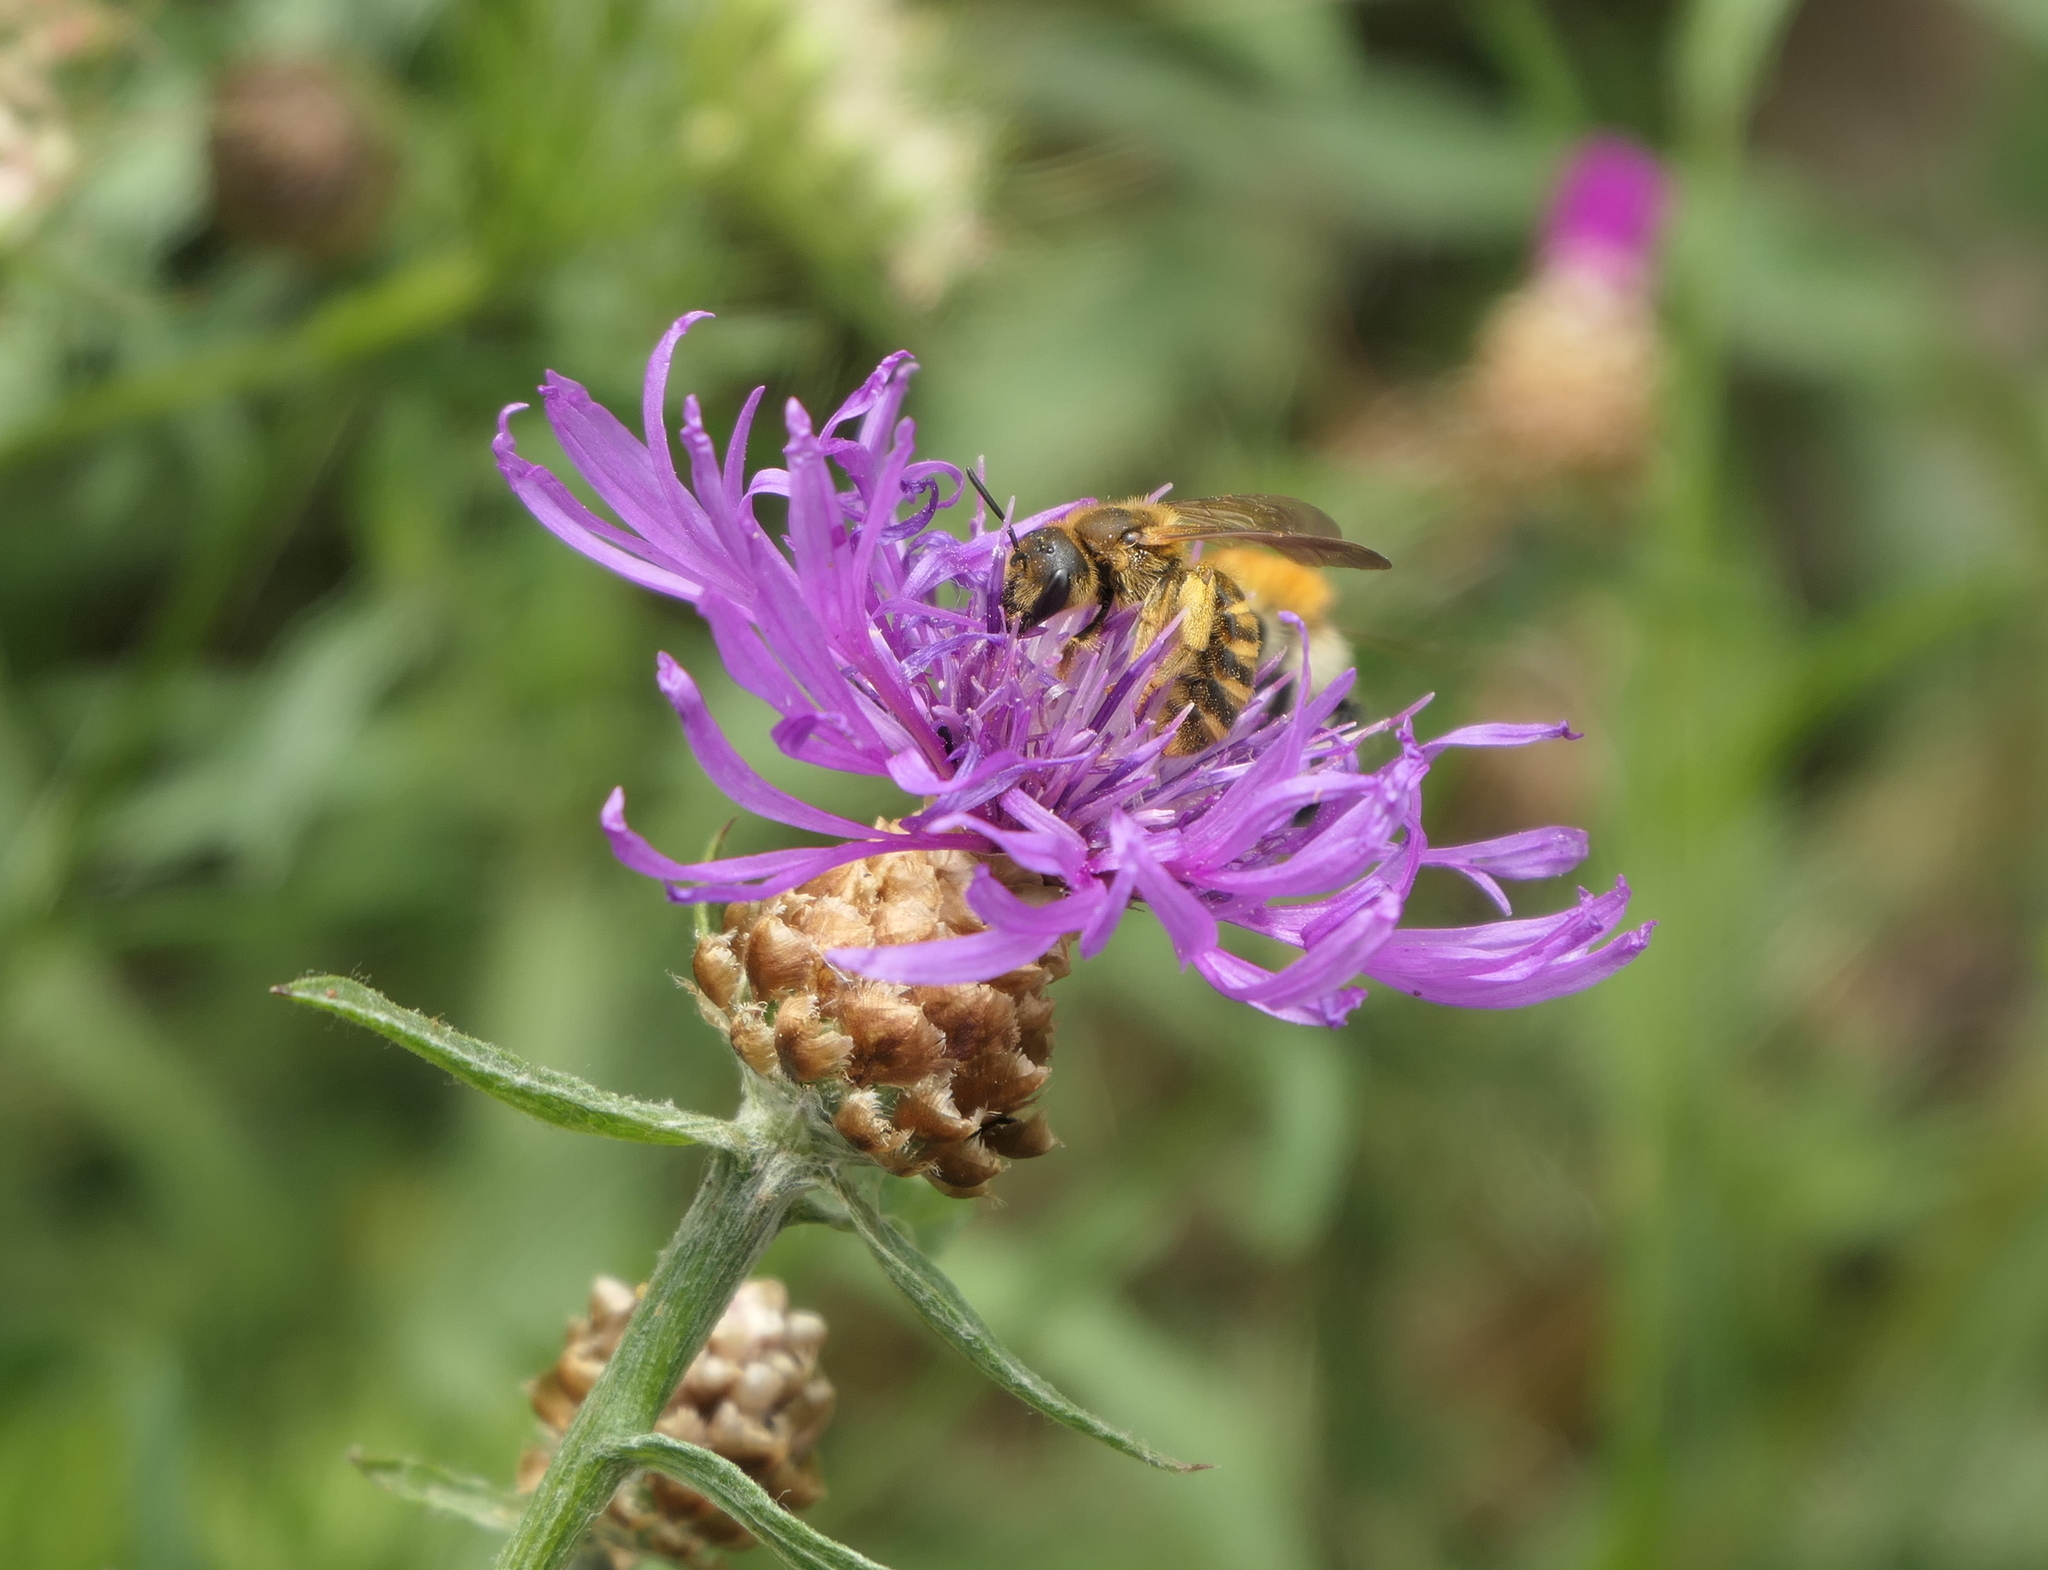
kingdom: Animalia
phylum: Arthropoda
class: Insecta
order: Hymenoptera
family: Halictidae
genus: Halictus
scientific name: Halictus scabiosae
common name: Great banded furrow bee
